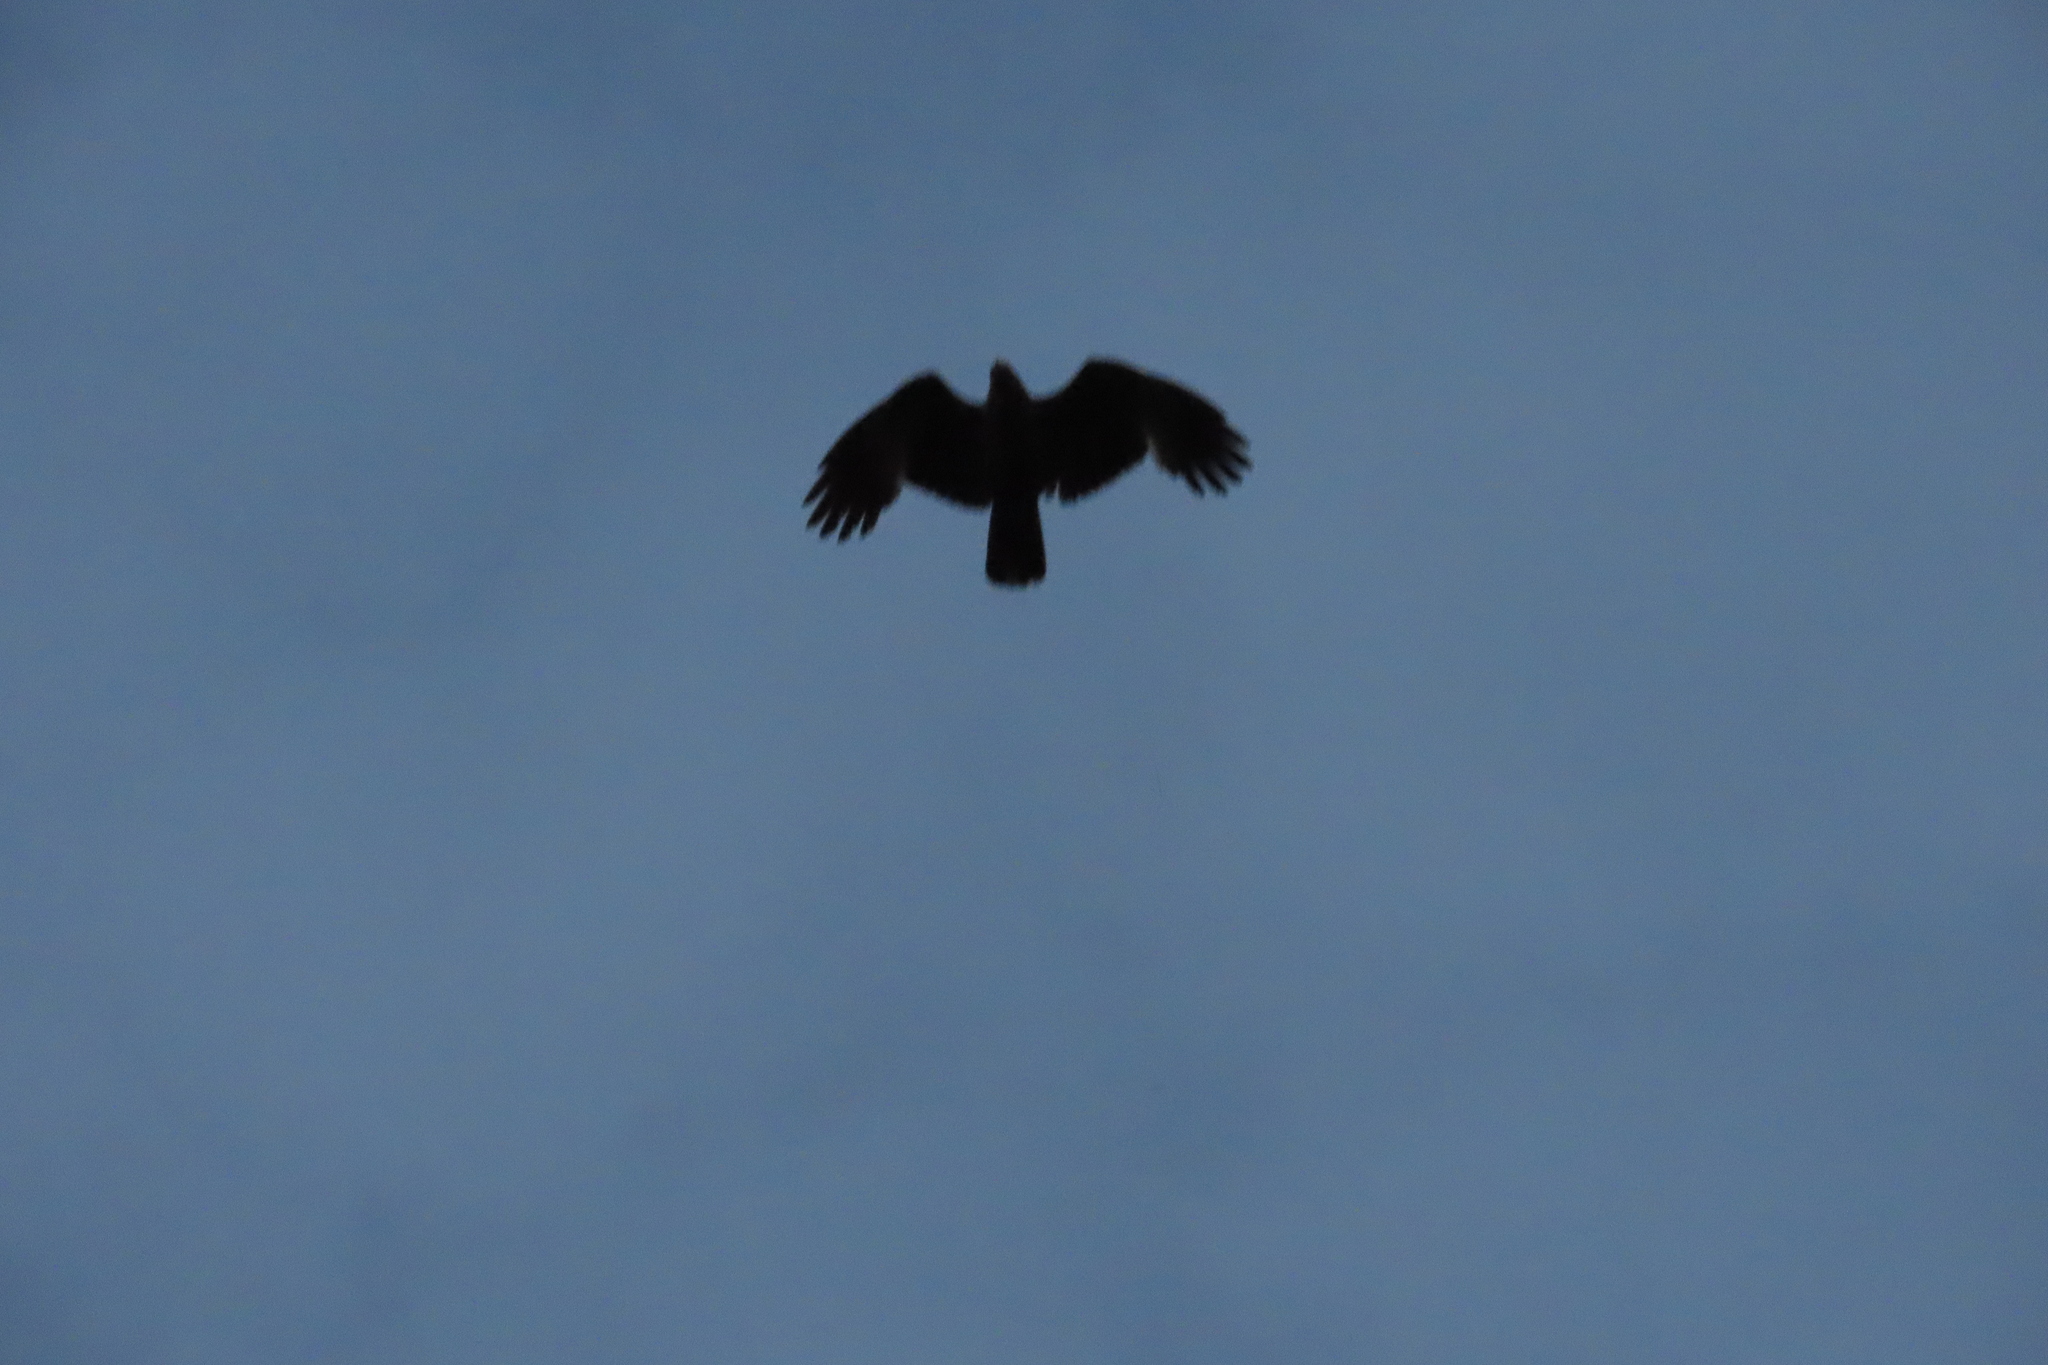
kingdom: Animalia
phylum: Chordata
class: Aves
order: Accipitriformes
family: Accipitridae
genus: Haliastur
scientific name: Haliastur indus
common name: Brahminy kite
